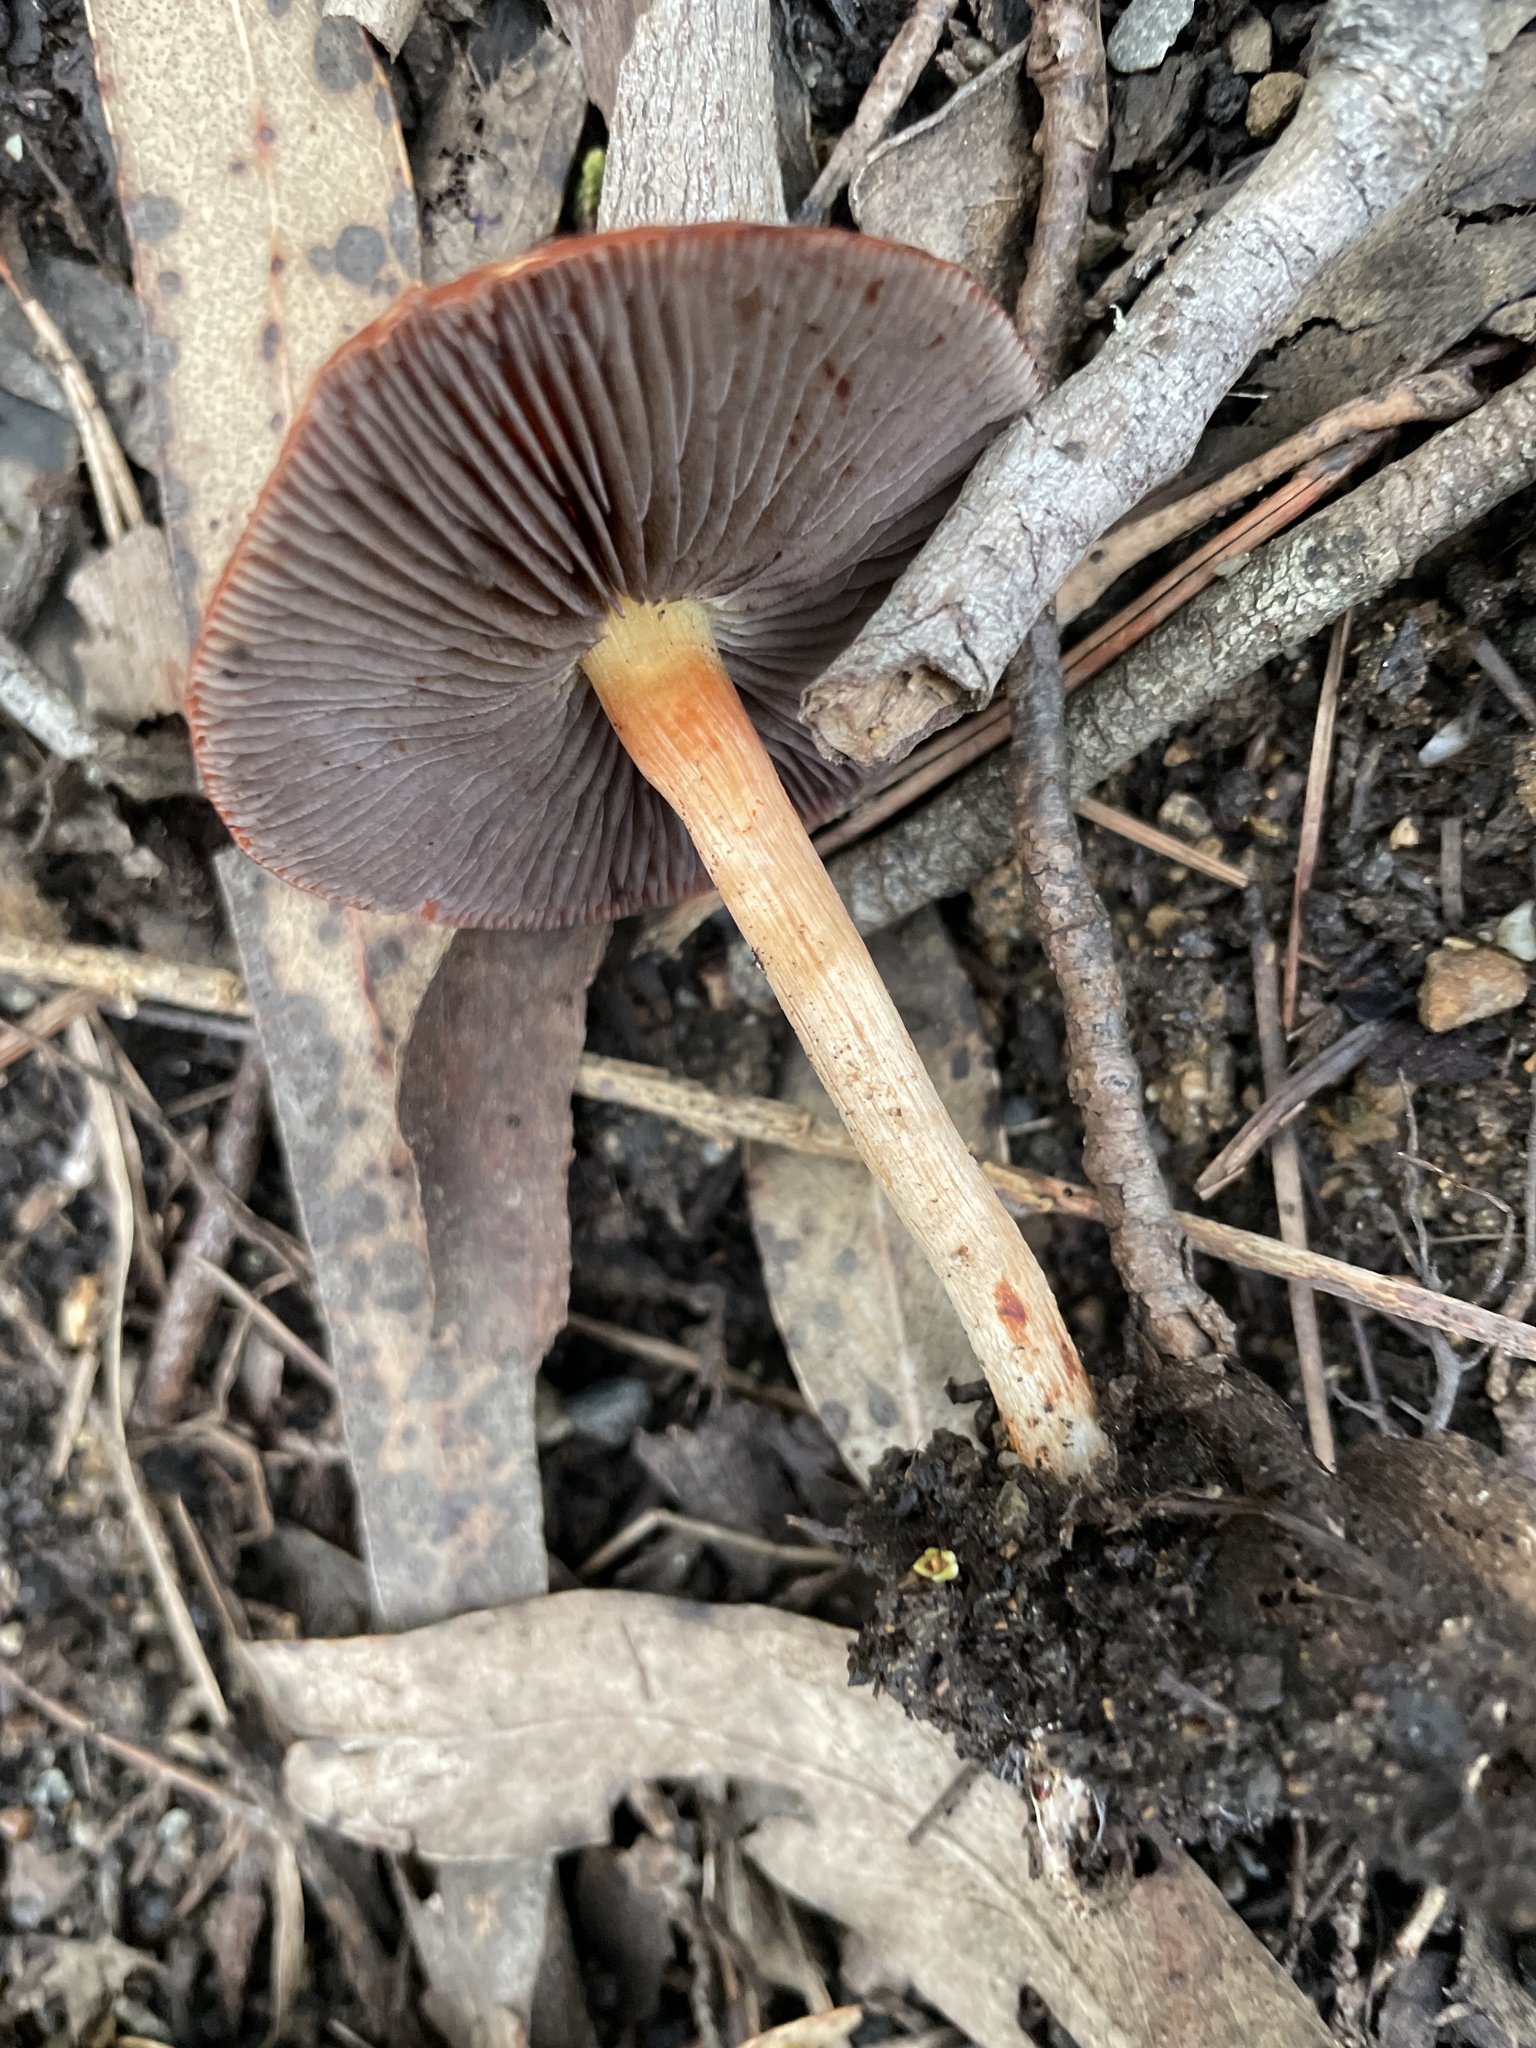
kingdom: Fungi
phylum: Basidiomycota
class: Agaricomycetes
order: Agaricales
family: Strophariaceae
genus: Leratiomyces
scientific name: Leratiomyces ceres
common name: Redlead roundhead
